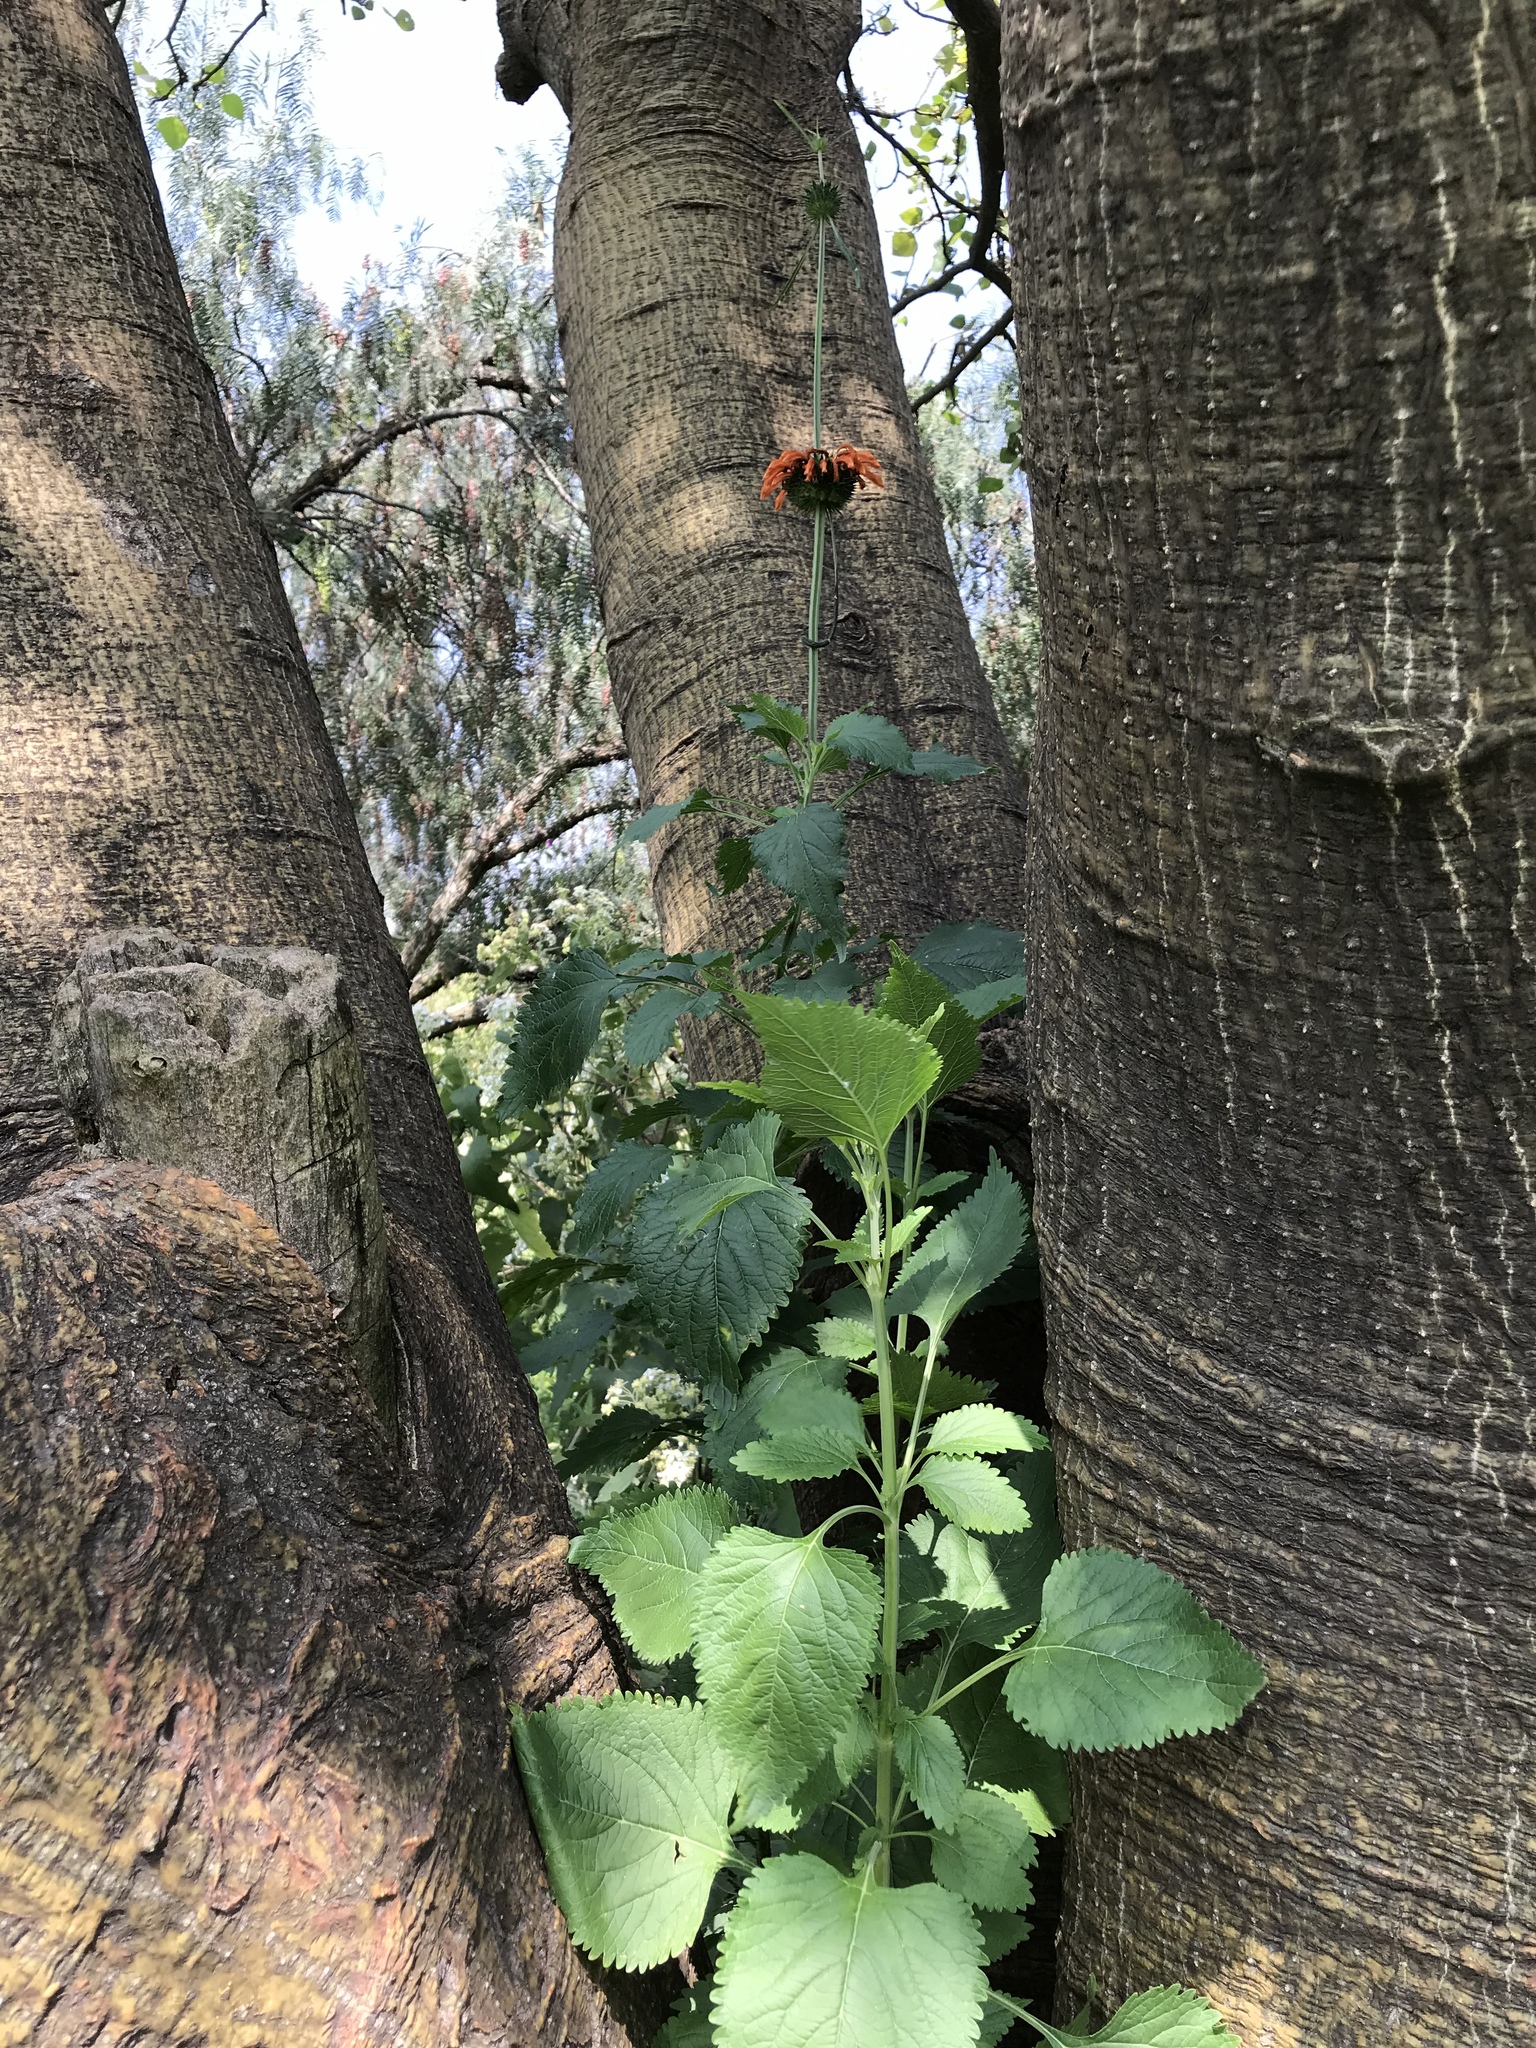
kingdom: Plantae
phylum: Tracheophyta
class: Magnoliopsida
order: Lamiales
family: Lamiaceae
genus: Leonotis
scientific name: Leonotis nepetifolia
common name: Christmas candlestick
